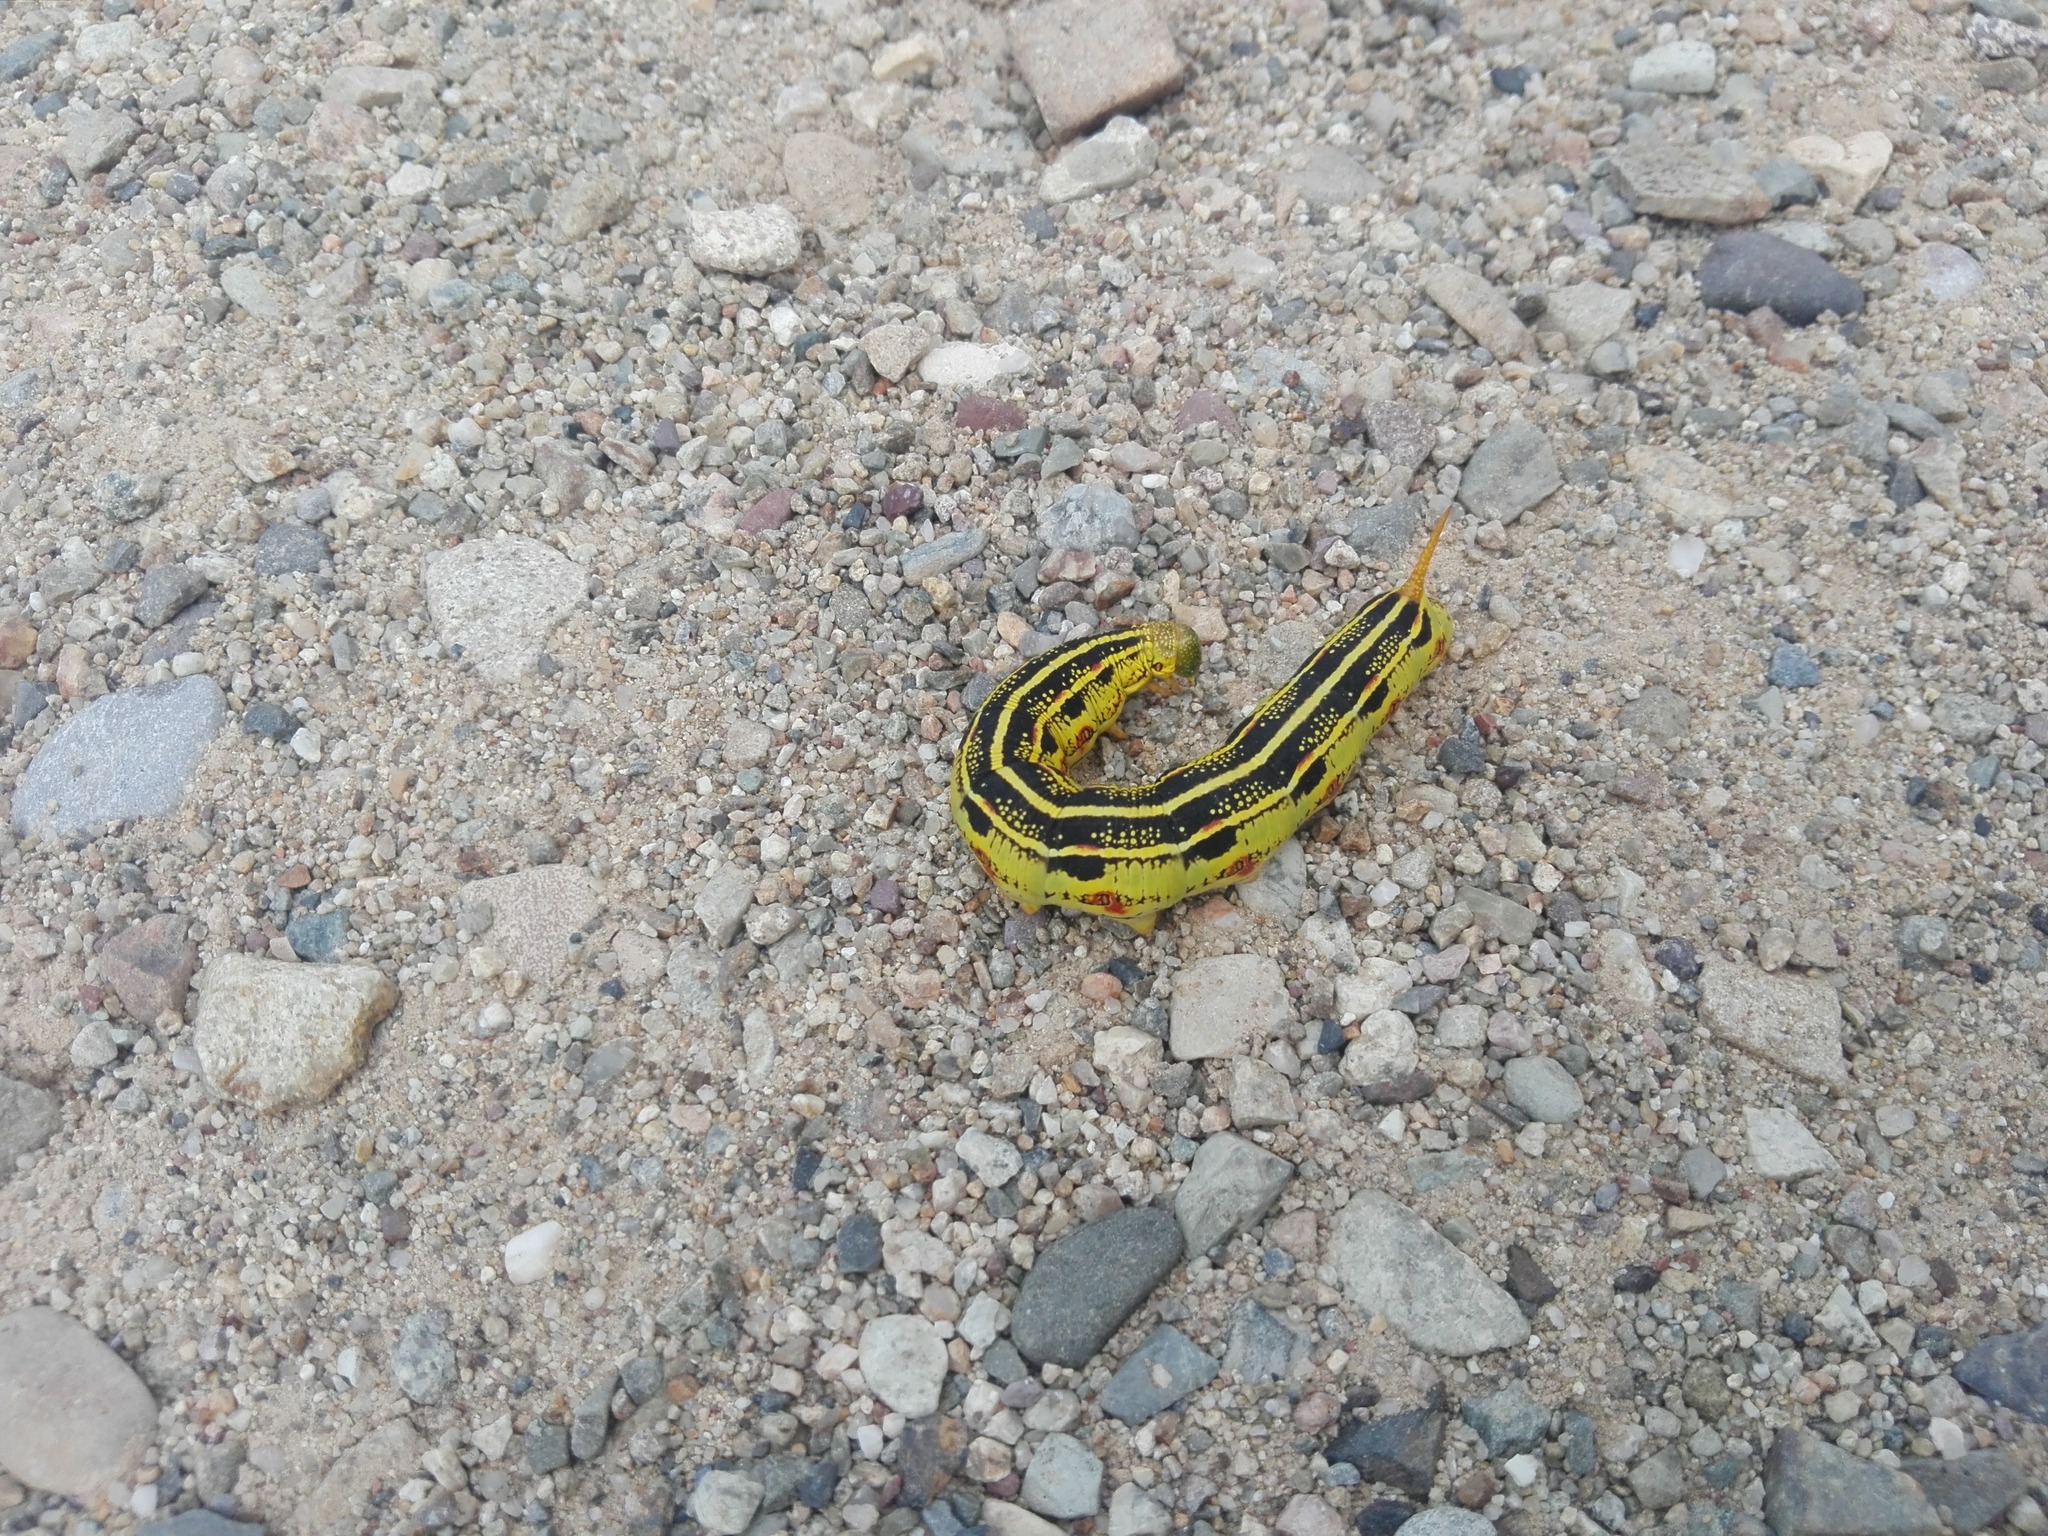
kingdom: Animalia
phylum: Arthropoda
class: Insecta
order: Lepidoptera
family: Sphingidae
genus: Hyles
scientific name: Hyles lineata
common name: White-lined sphinx
